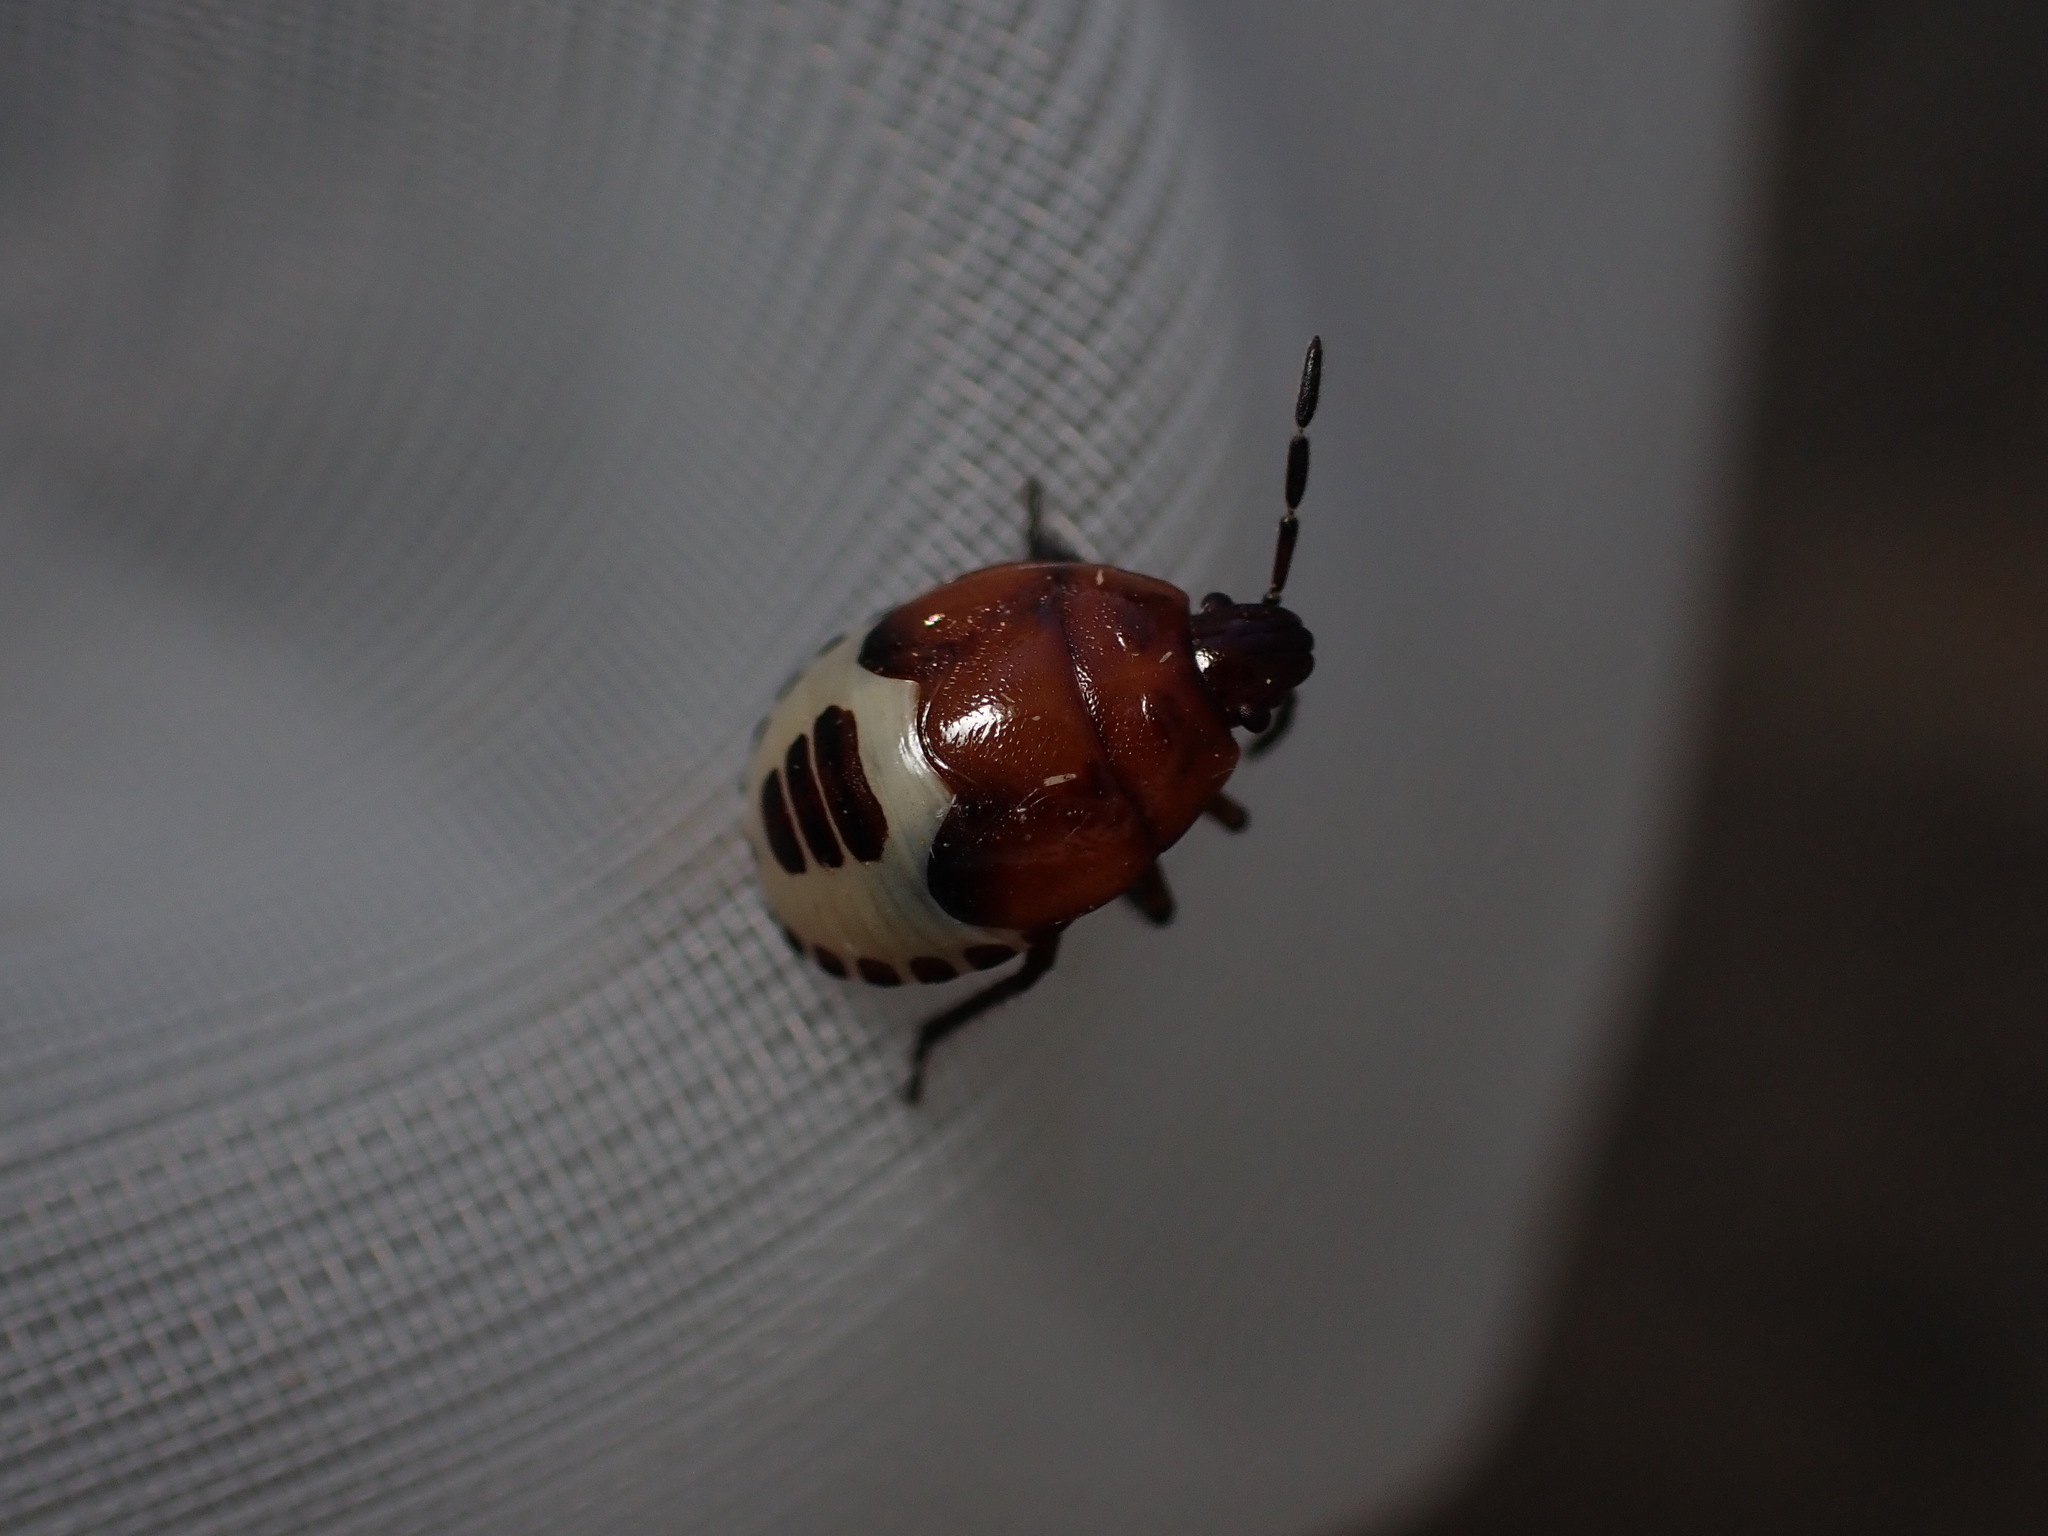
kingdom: Animalia
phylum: Arthropoda
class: Insecta
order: Hemiptera
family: Cydnidae
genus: Tritomegas
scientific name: Tritomegas sexmaculatus
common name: Rambur's pied shieldbug
